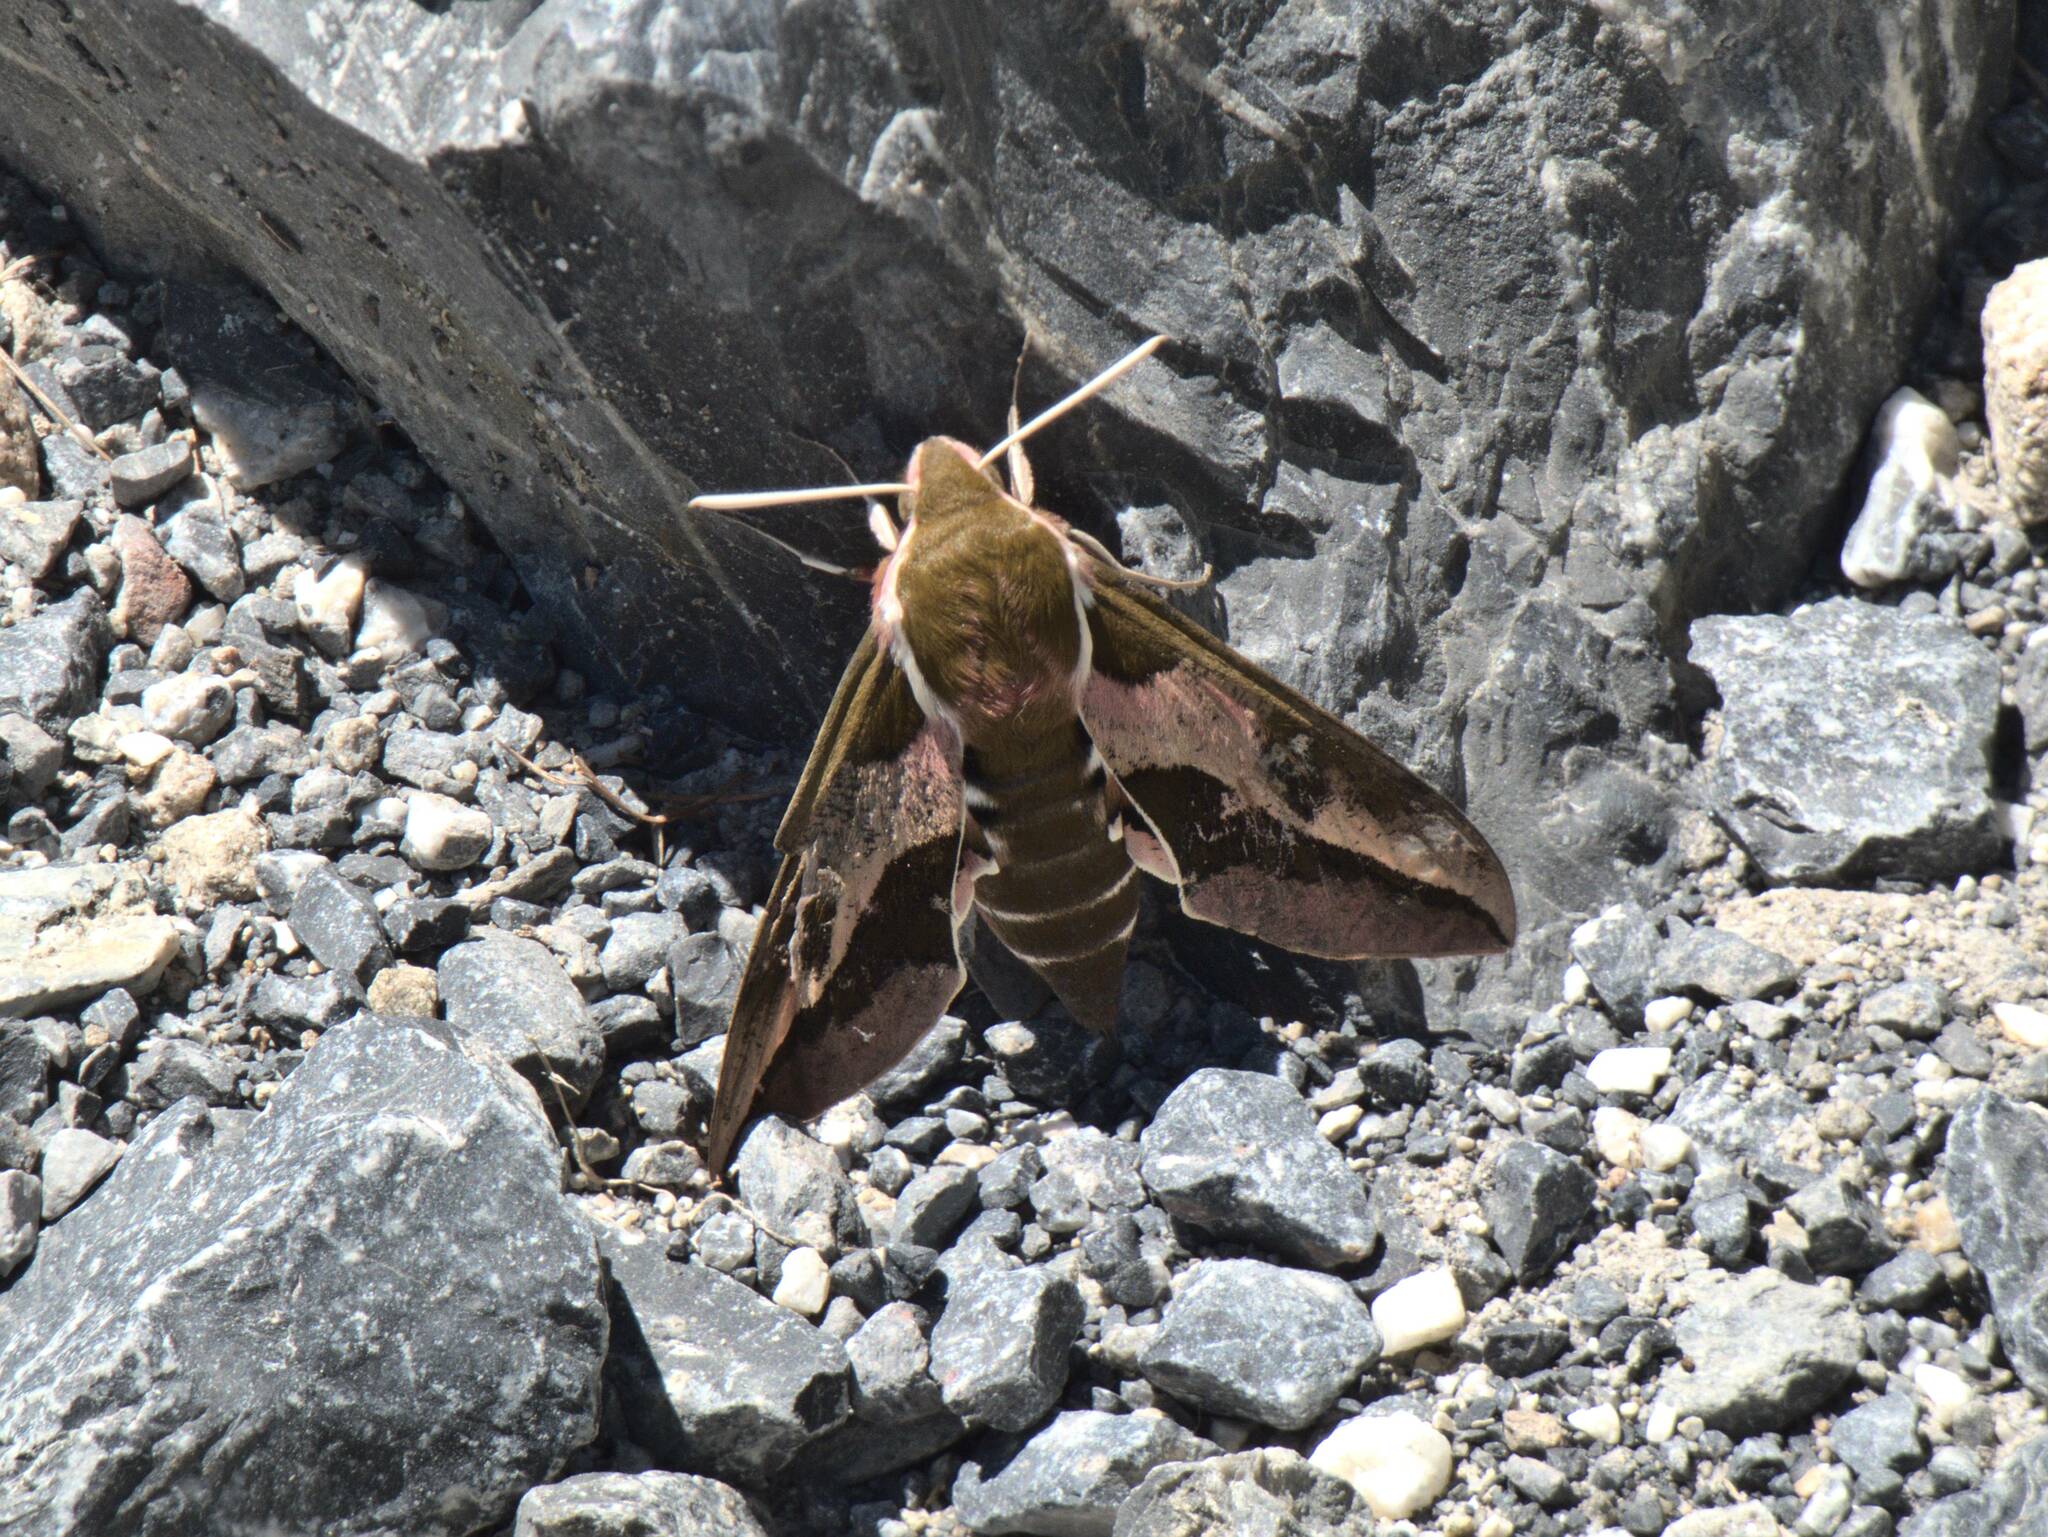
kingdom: Animalia
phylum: Arthropoda
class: Insecta
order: Lepidoptera
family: Sphingidae
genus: Hyles
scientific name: Hyles euphorbiae
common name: Spurge hawk-moth
